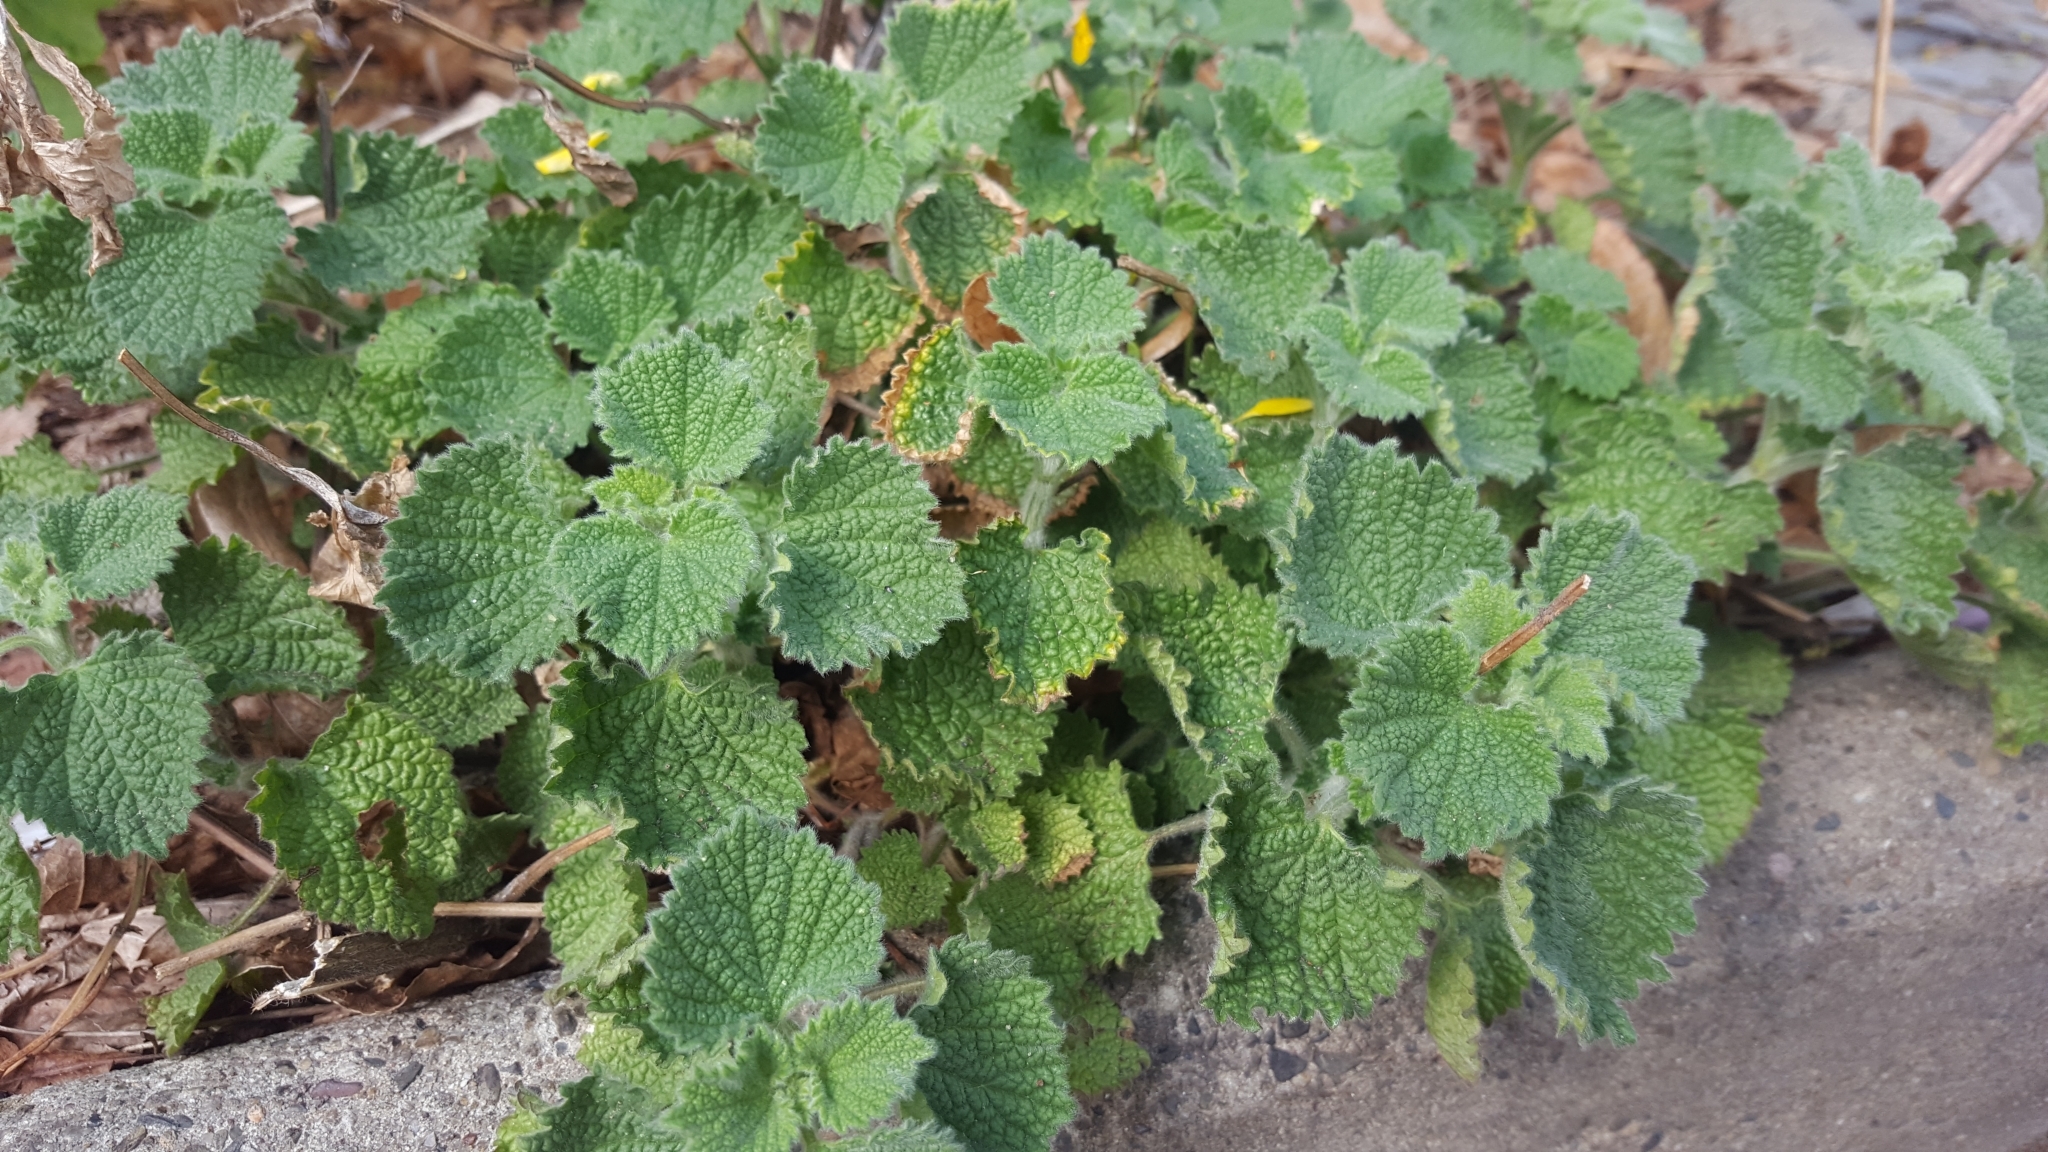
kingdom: Plantae
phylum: Tracheophyta
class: Magnoliopsida
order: Lamiales
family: Lamiaceae
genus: Ballota
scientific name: Ballota nigra
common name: Black horehound
